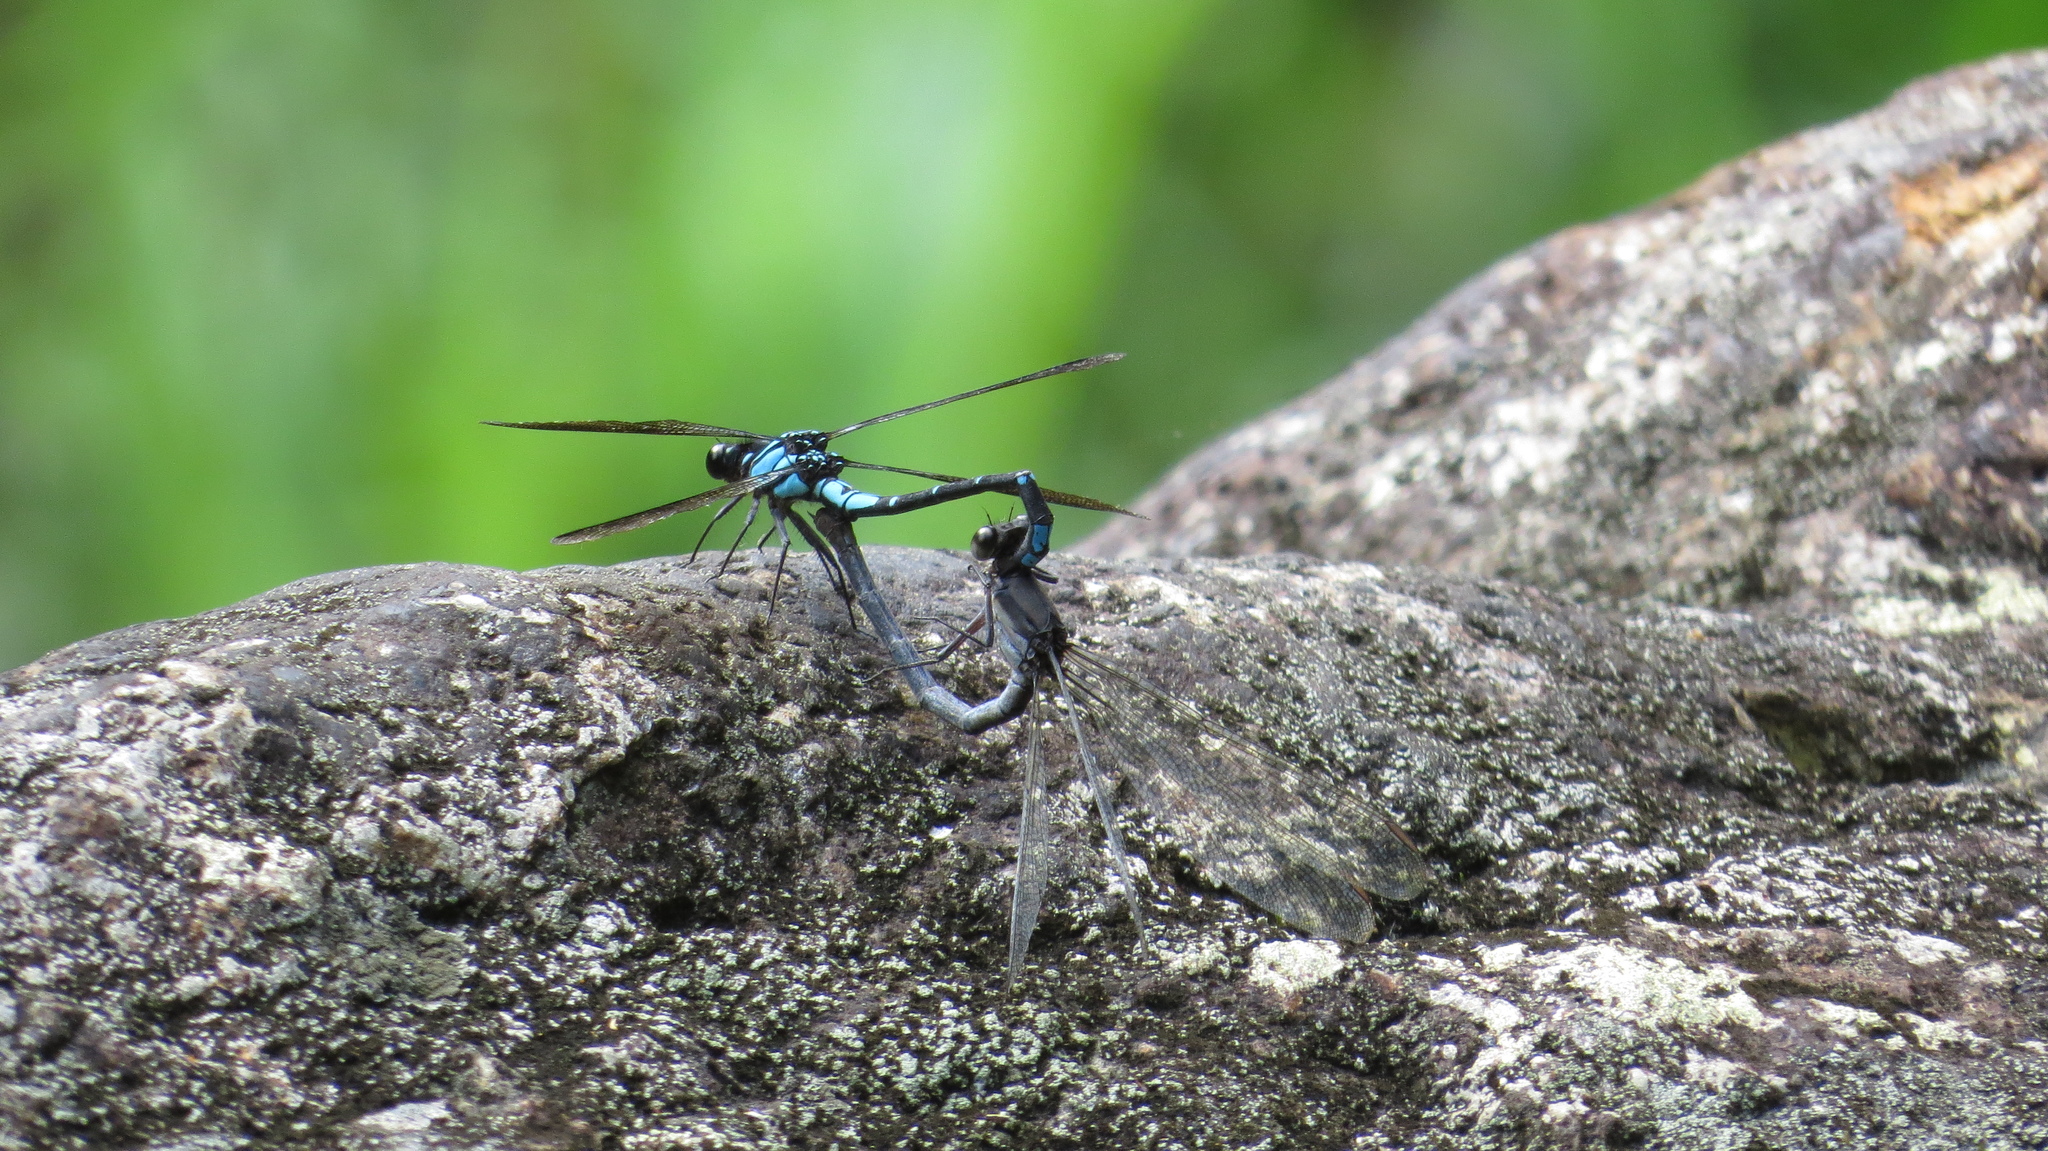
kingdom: Animalia
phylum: Arthropoda
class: Insecta
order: Odonata
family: Lestoideidae
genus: Diphlebia
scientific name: Diphlebia coerulescens
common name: Sapphire rockmaster
